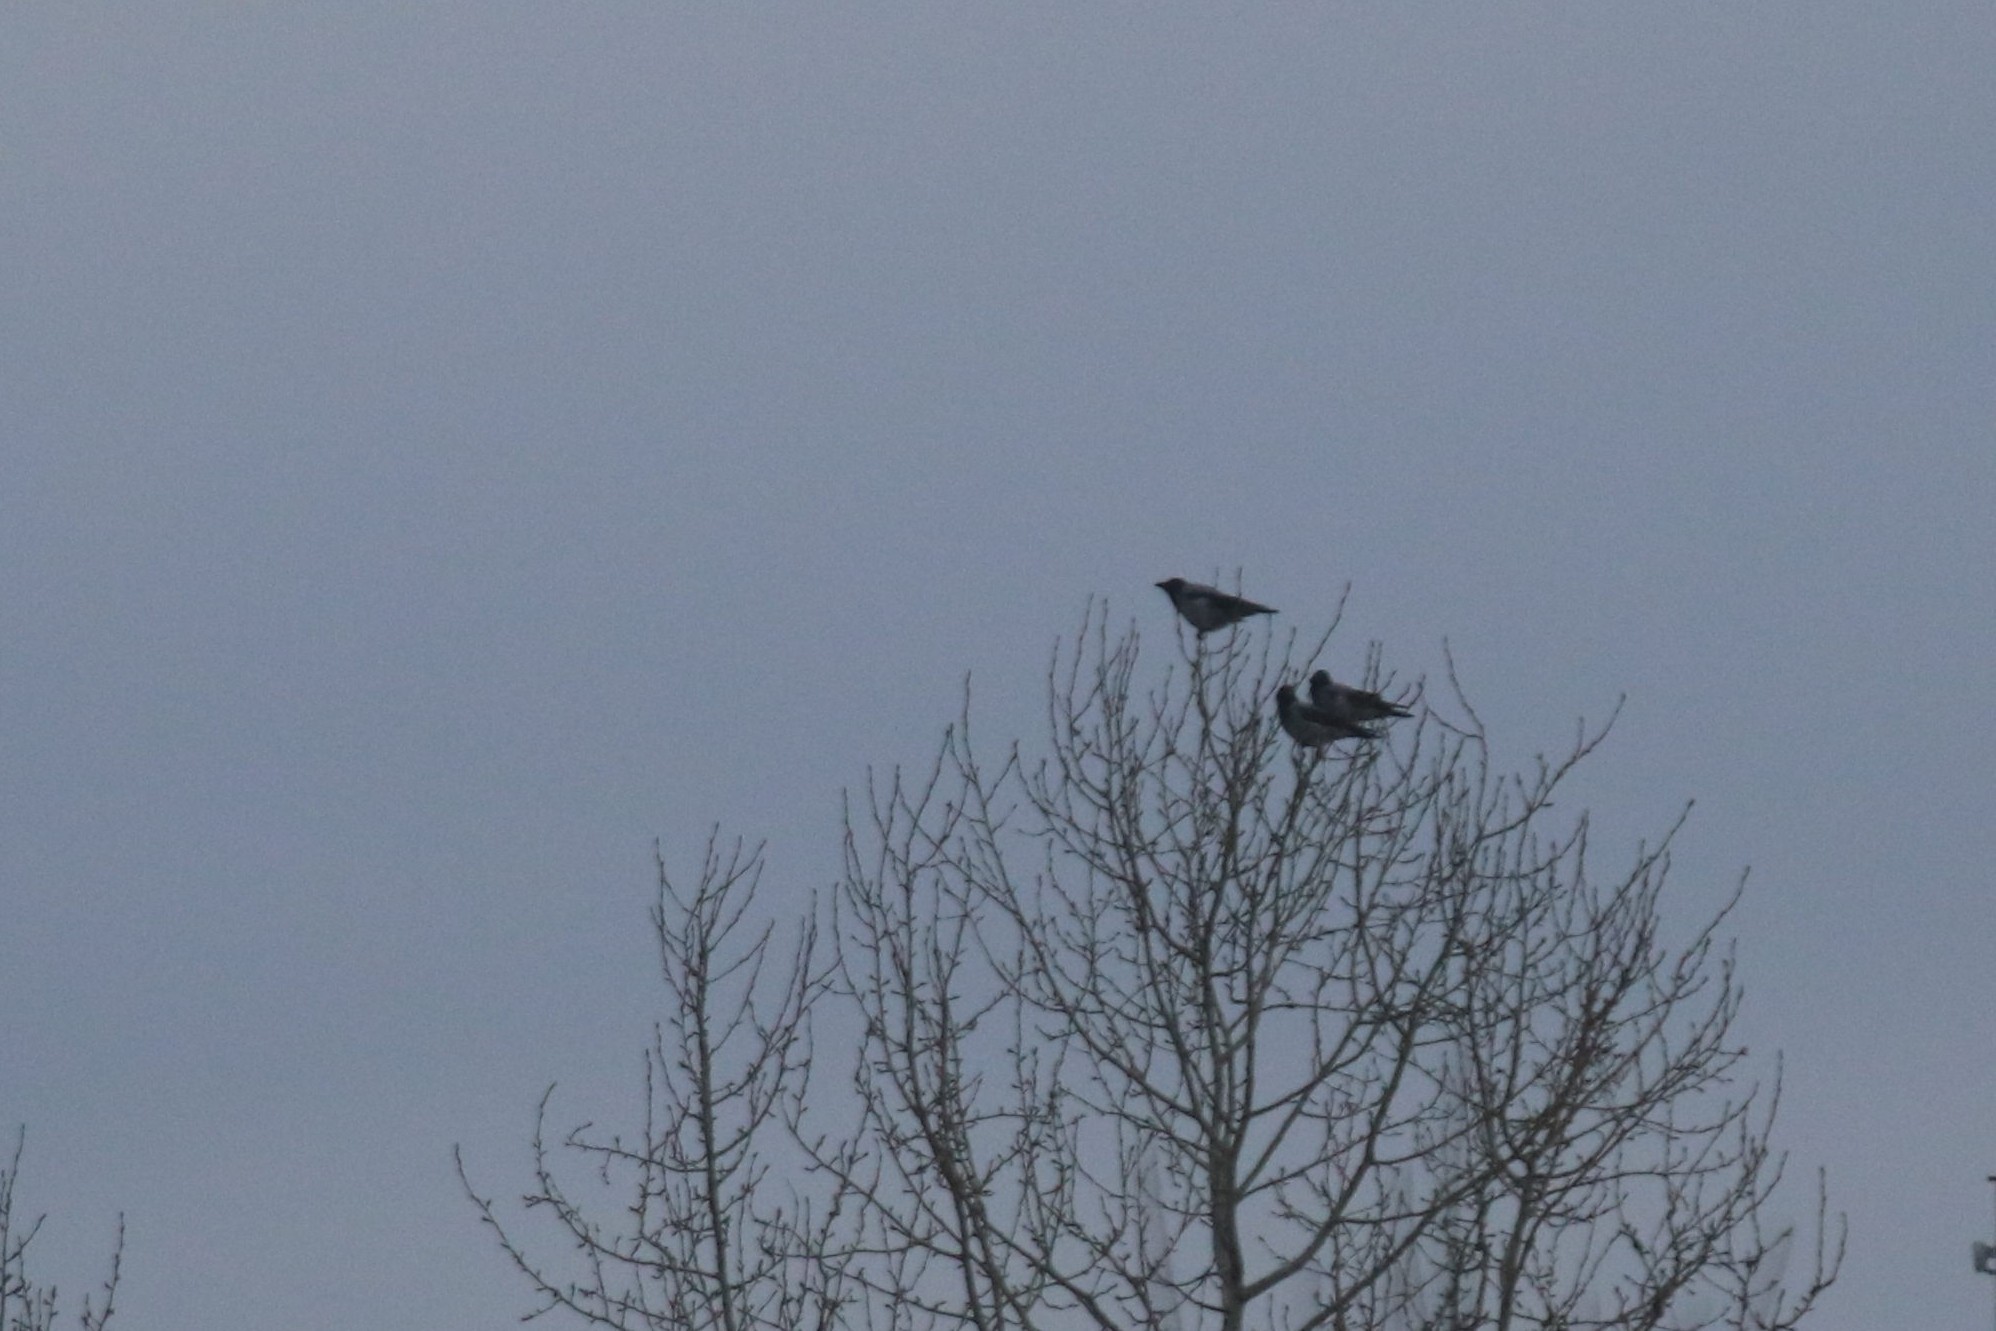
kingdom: Animalia
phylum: Chordata
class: Aves
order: Passeriformes
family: Corvidae
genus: Corvus
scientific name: Corvus cornix
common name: Hooded crow
